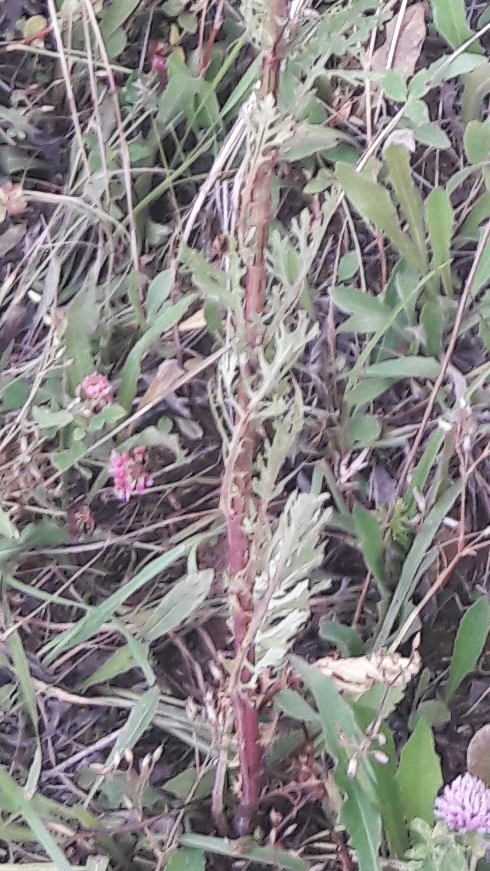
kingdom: Plantae
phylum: Tracheophyta
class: Magnoliopsida
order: Asterales
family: Asteraceae
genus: Jacobaea
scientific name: Jacobaea vulgaris
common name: Stinking willie
